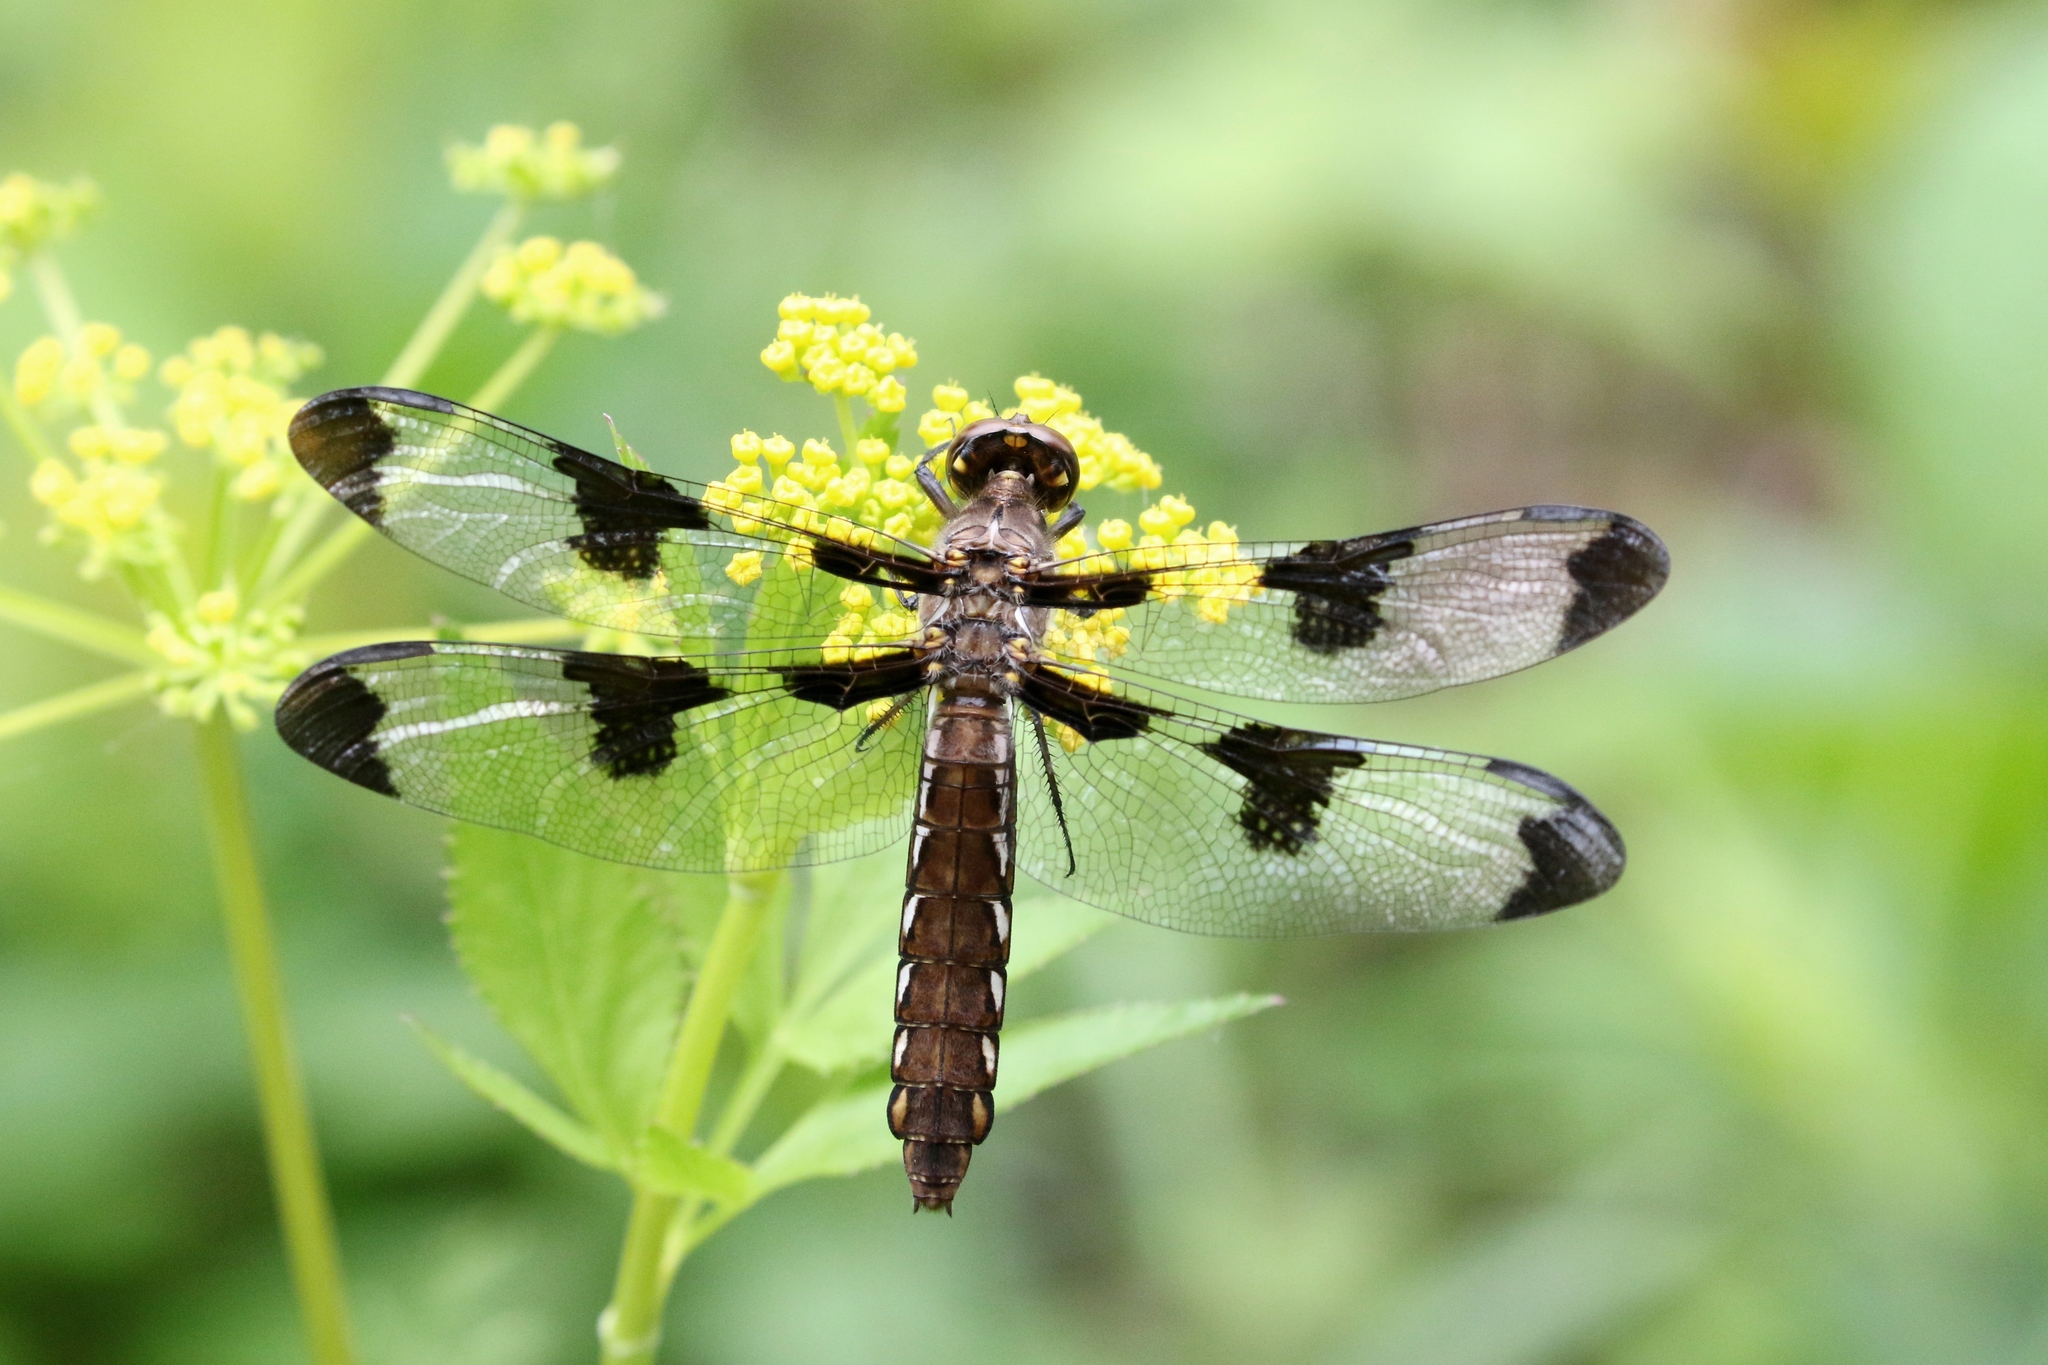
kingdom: Animalia
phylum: Arthropoda
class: Insecta
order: Odonata
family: Libellulidae
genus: Plathemis
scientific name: Plathemis lydia
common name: Common whitetail
